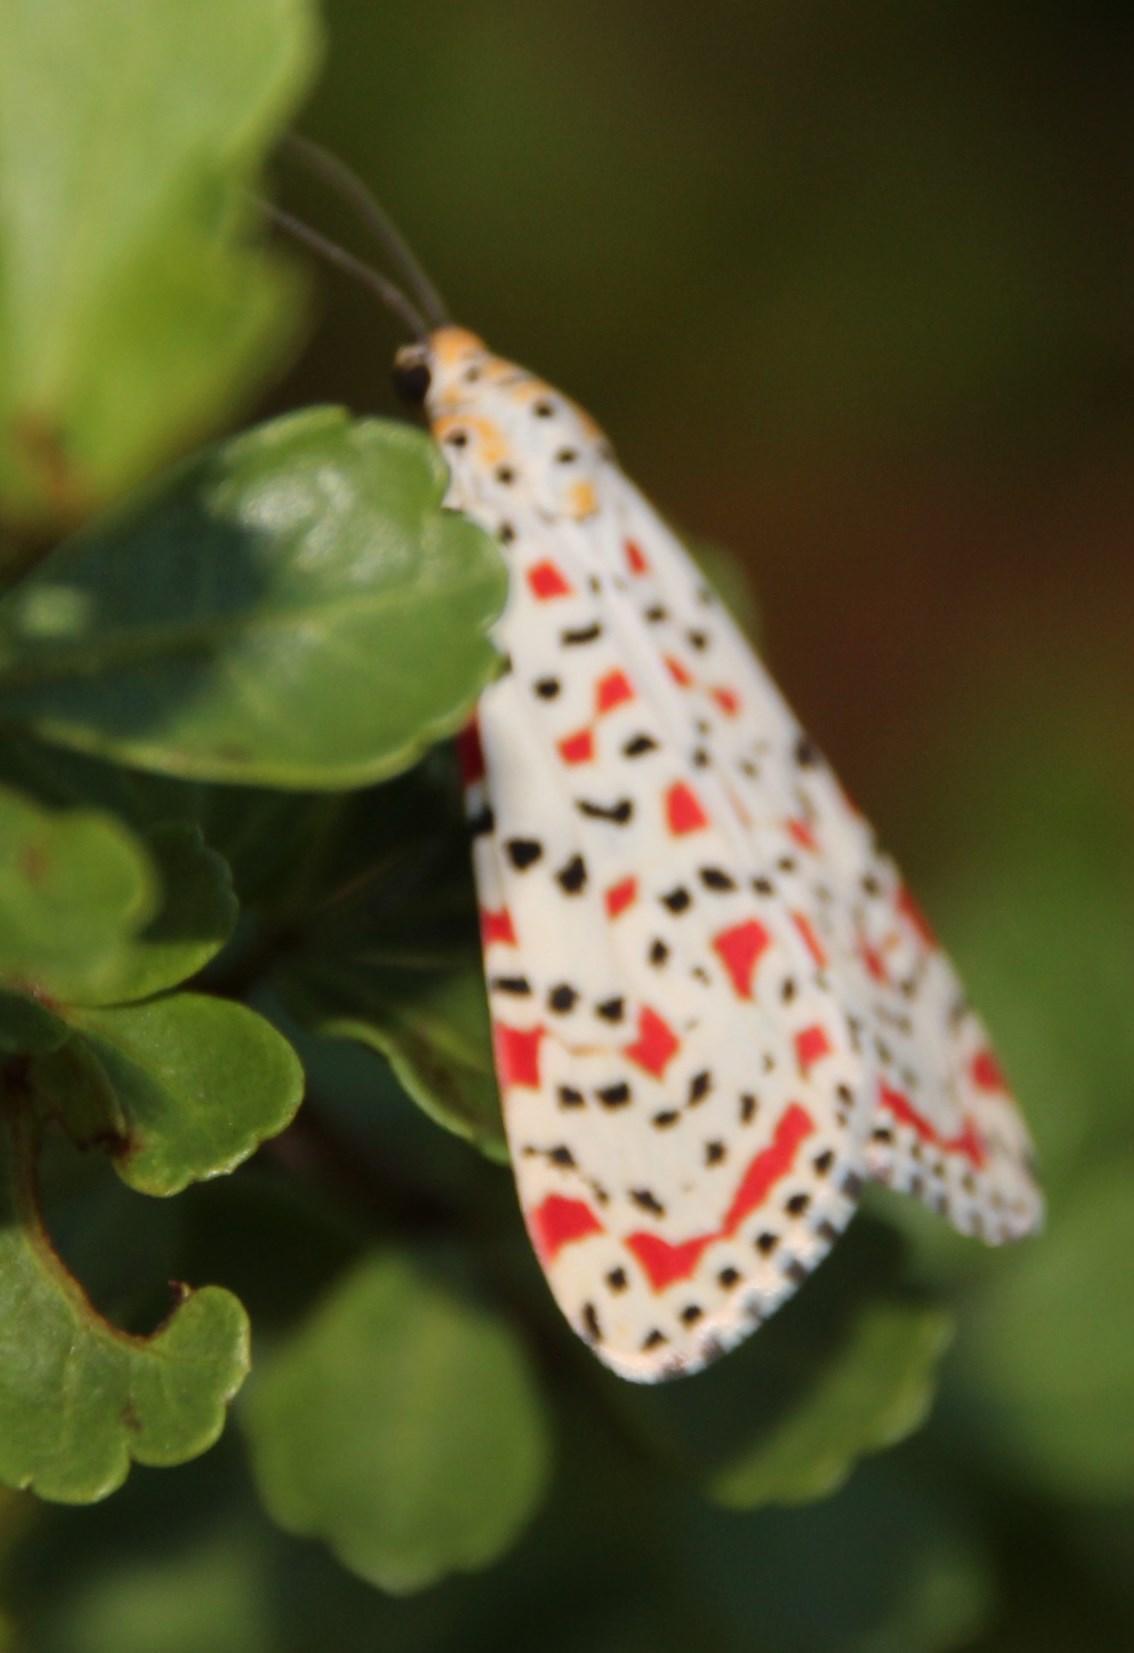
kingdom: Animalia
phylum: Arthropoda
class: Insecta
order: Lepidoptera
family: Erebidae
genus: Utetheisa
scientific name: Utetheisa pulchella
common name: Crimson speckled
